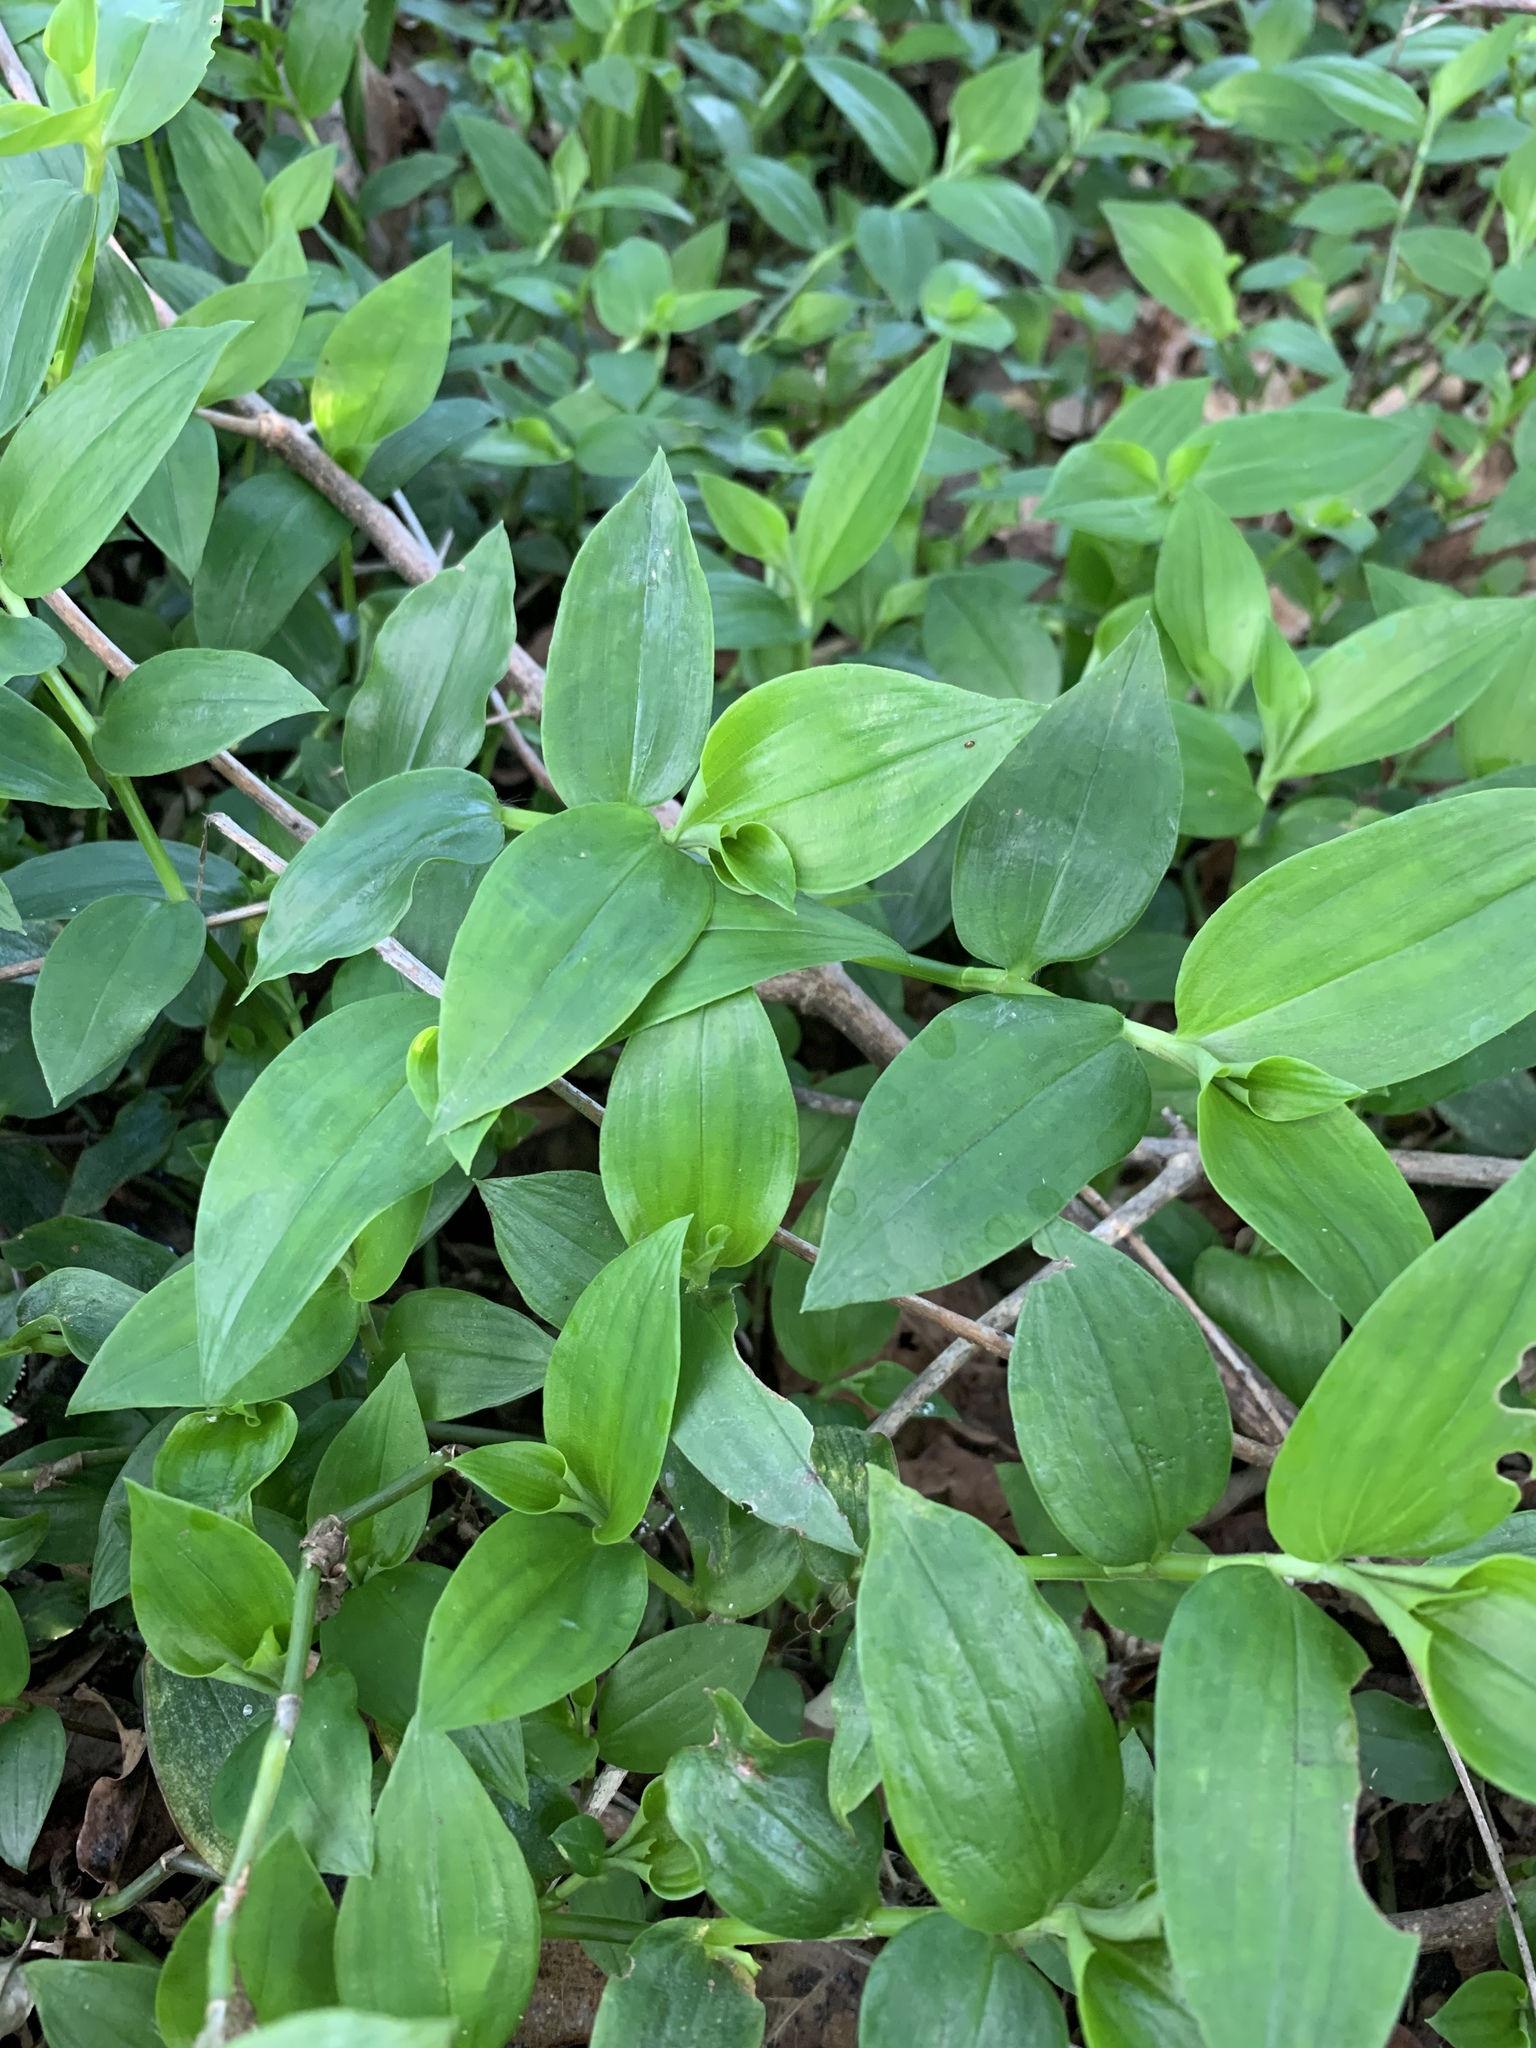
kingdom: Plantae
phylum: Tracheophyta
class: Liliopsida
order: Commelinales
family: Commelinaceae
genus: Tradescantia
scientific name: Tradescantia fluminensis
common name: Wandering-jew
